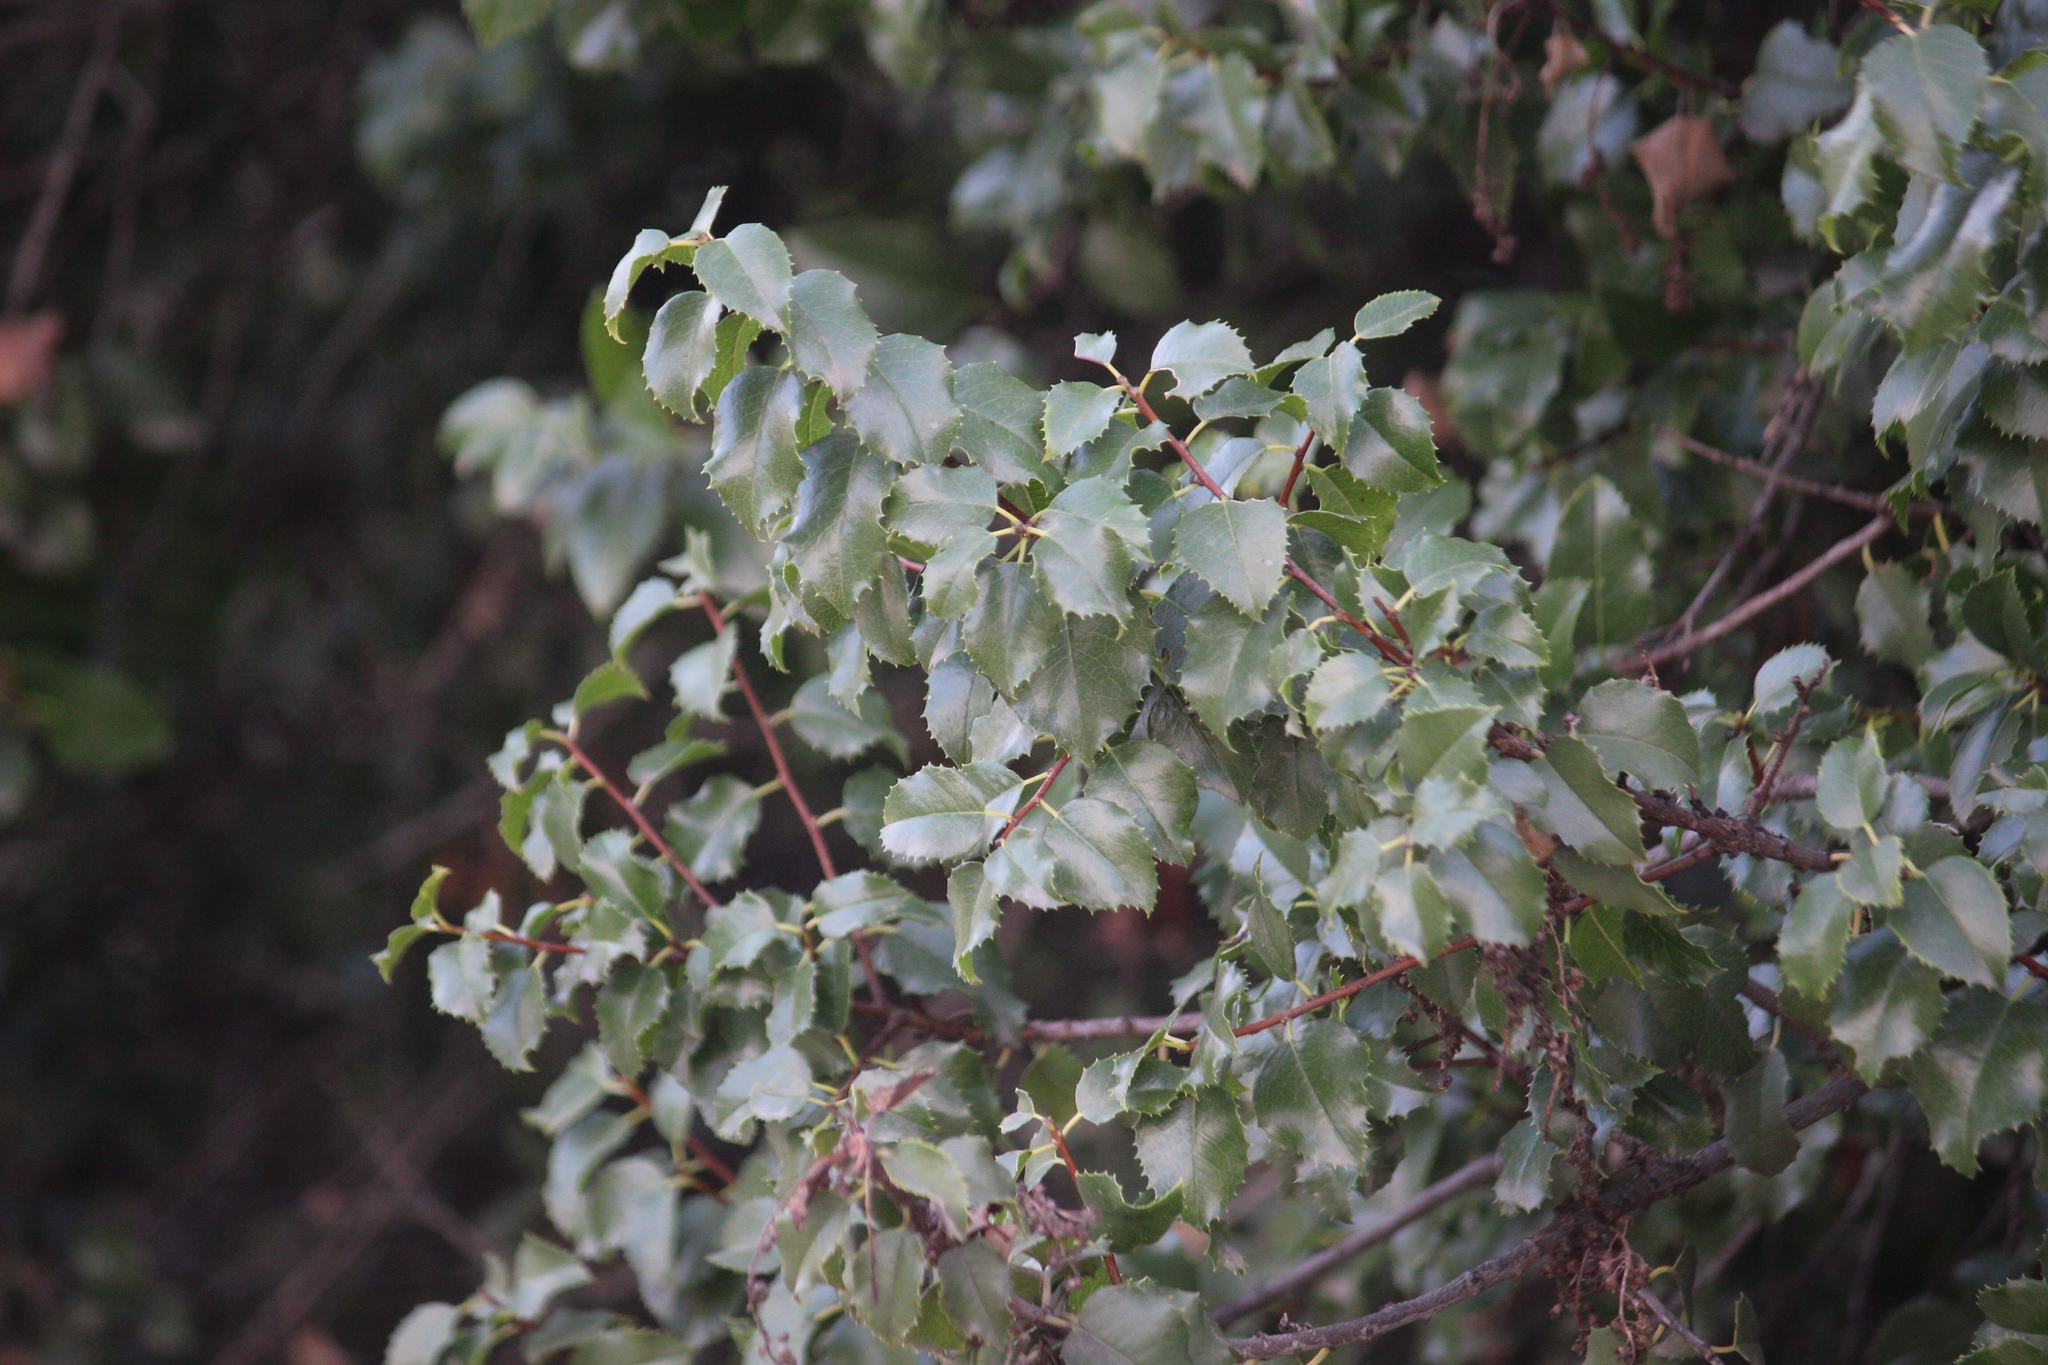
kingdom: Plantae
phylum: Tracheophyta
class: Magnoliopsida
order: Rosales
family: Rosaceae
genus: Prunus
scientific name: Prunus ilicifolia
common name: Hollyleaf cherry
